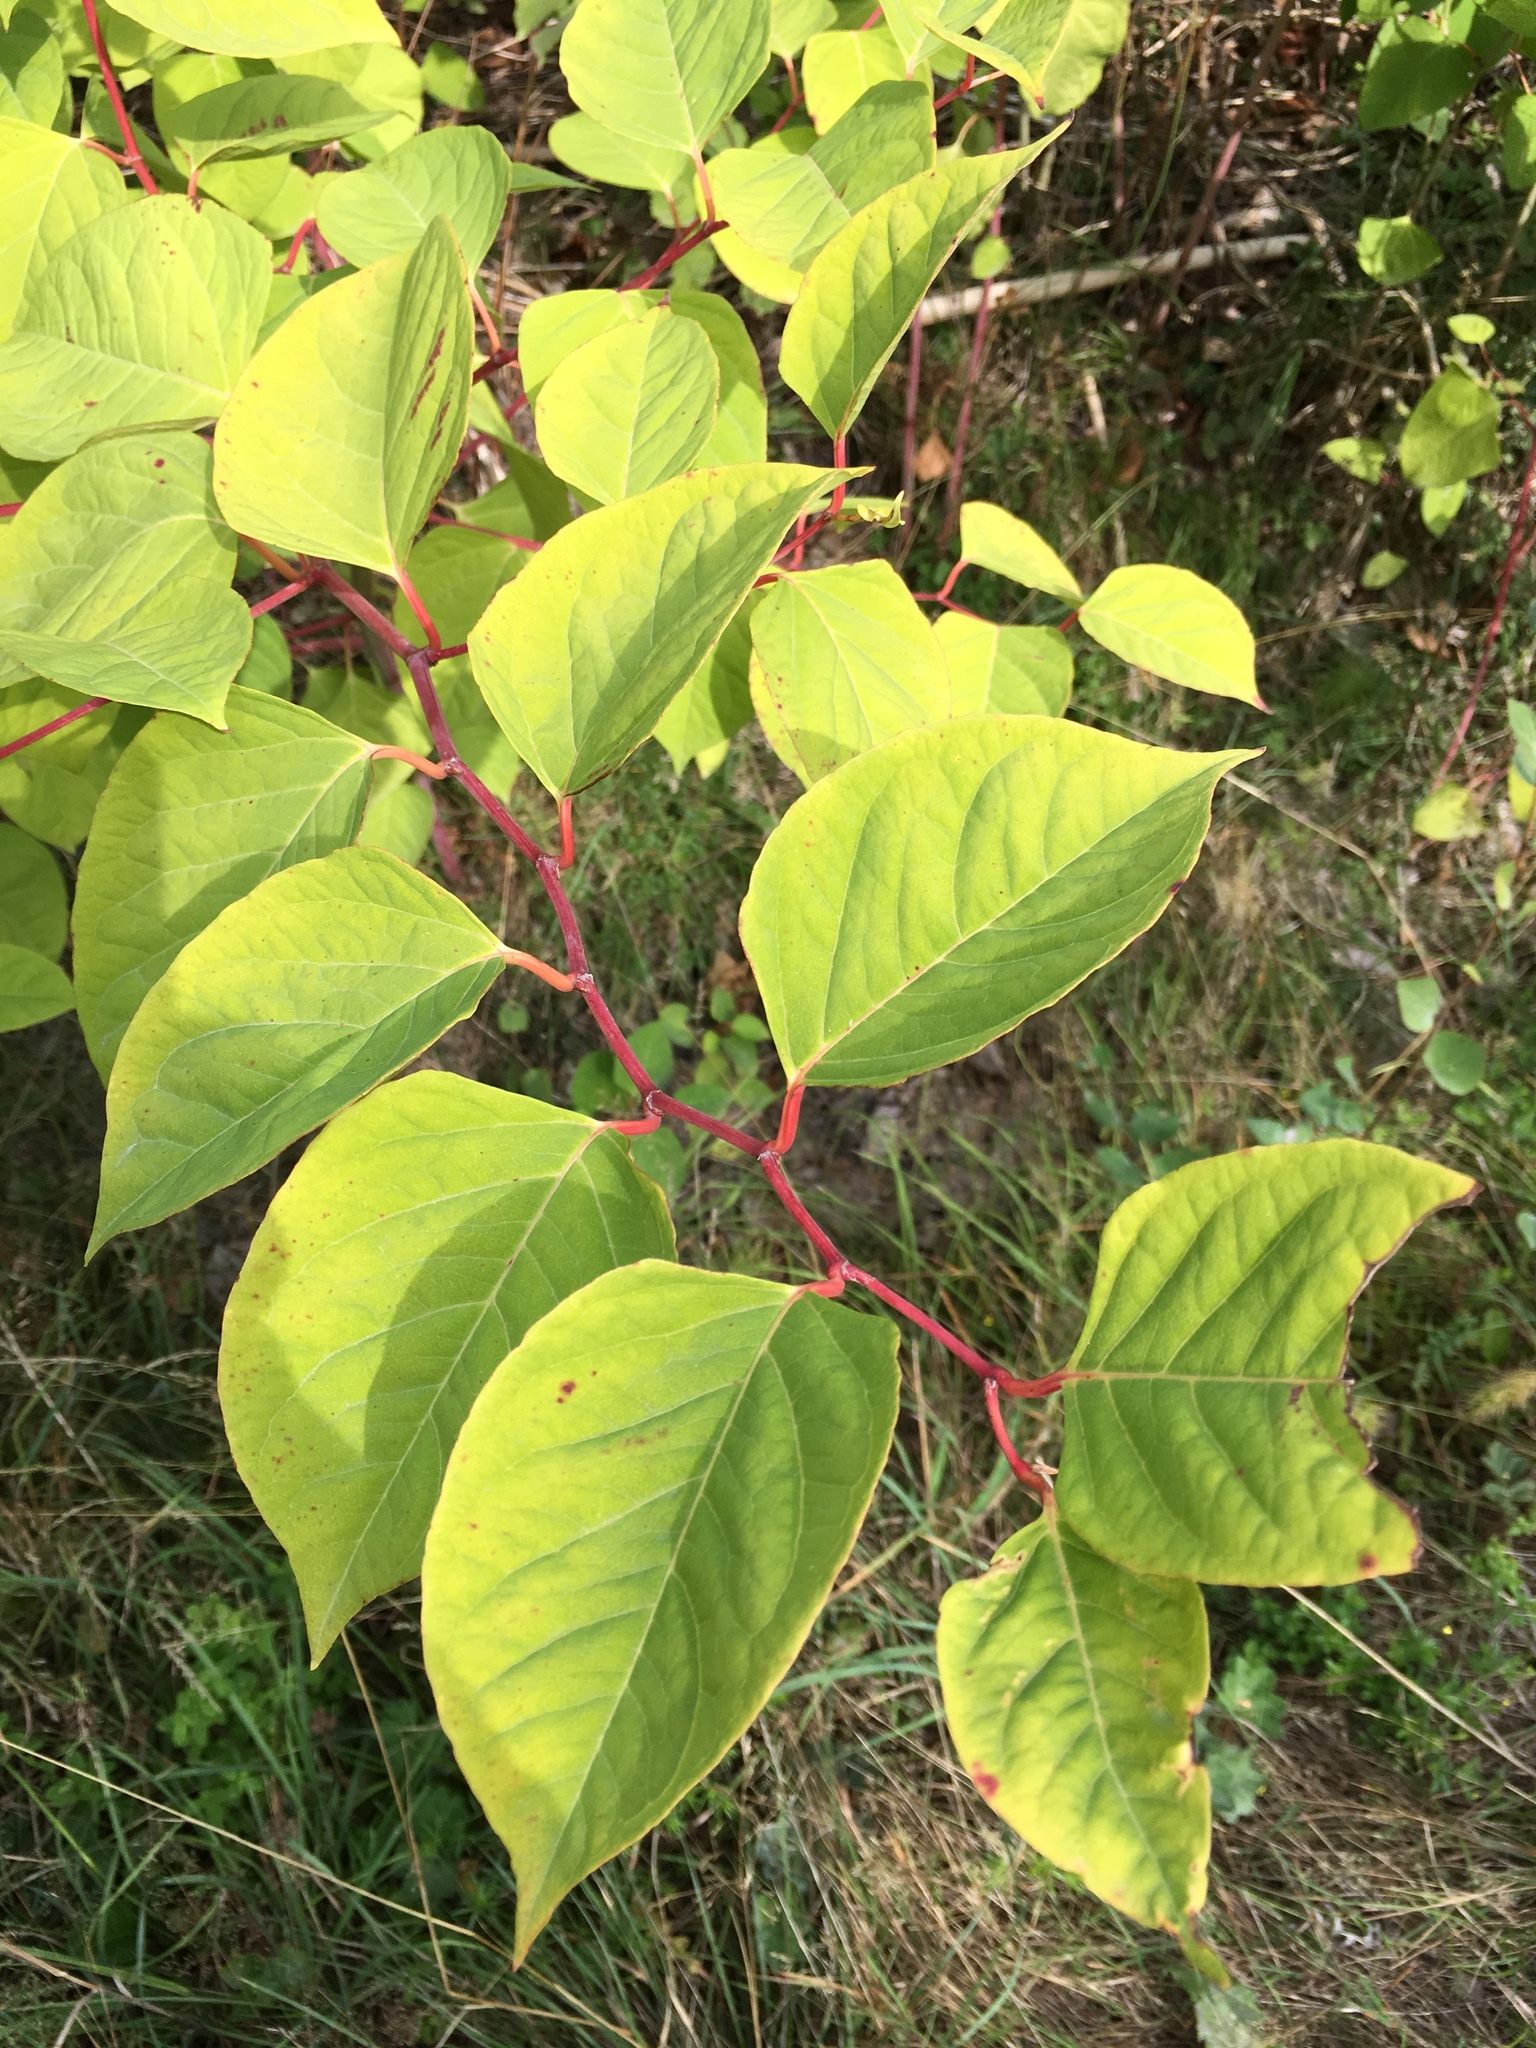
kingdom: Plantae
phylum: Tracheophyta
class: Magnoliopsida
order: Caryophyllales
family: Polygonaceae
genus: Reynoutria
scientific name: Reynoutria japonica
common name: Japanese knotweed
